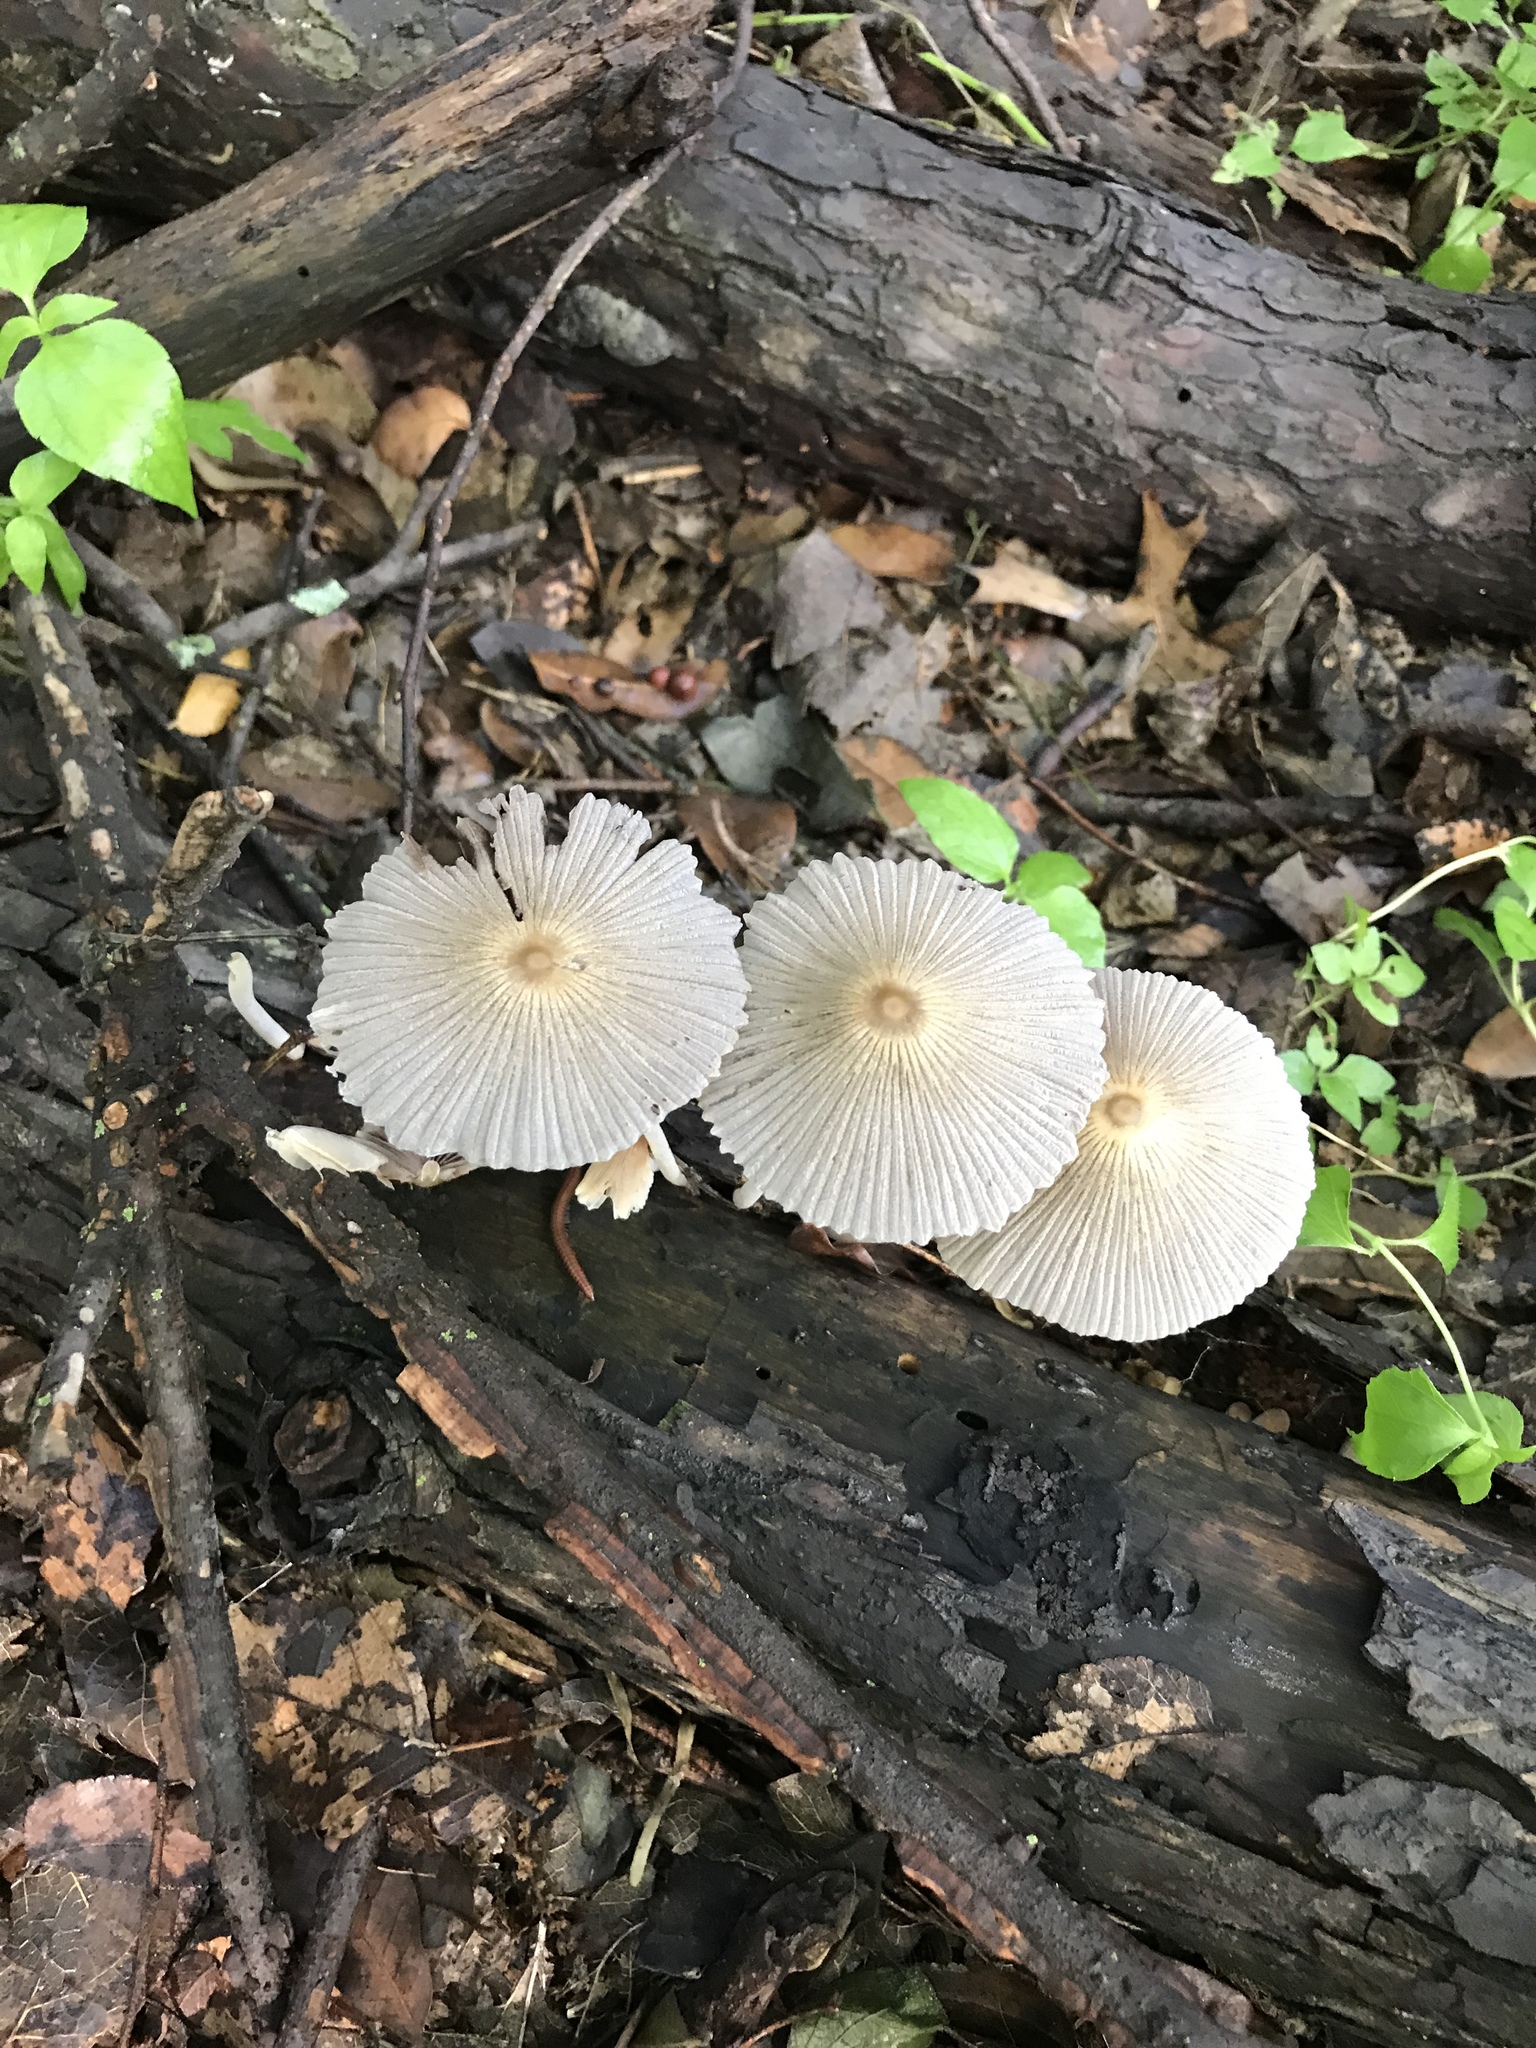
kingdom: Fungi
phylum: Basidiomycota
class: Agaricomycetes
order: Agaricales
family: Psathyrellaceae
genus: Parasola
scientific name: Parasola plicatilis
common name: Pleated inkcap
